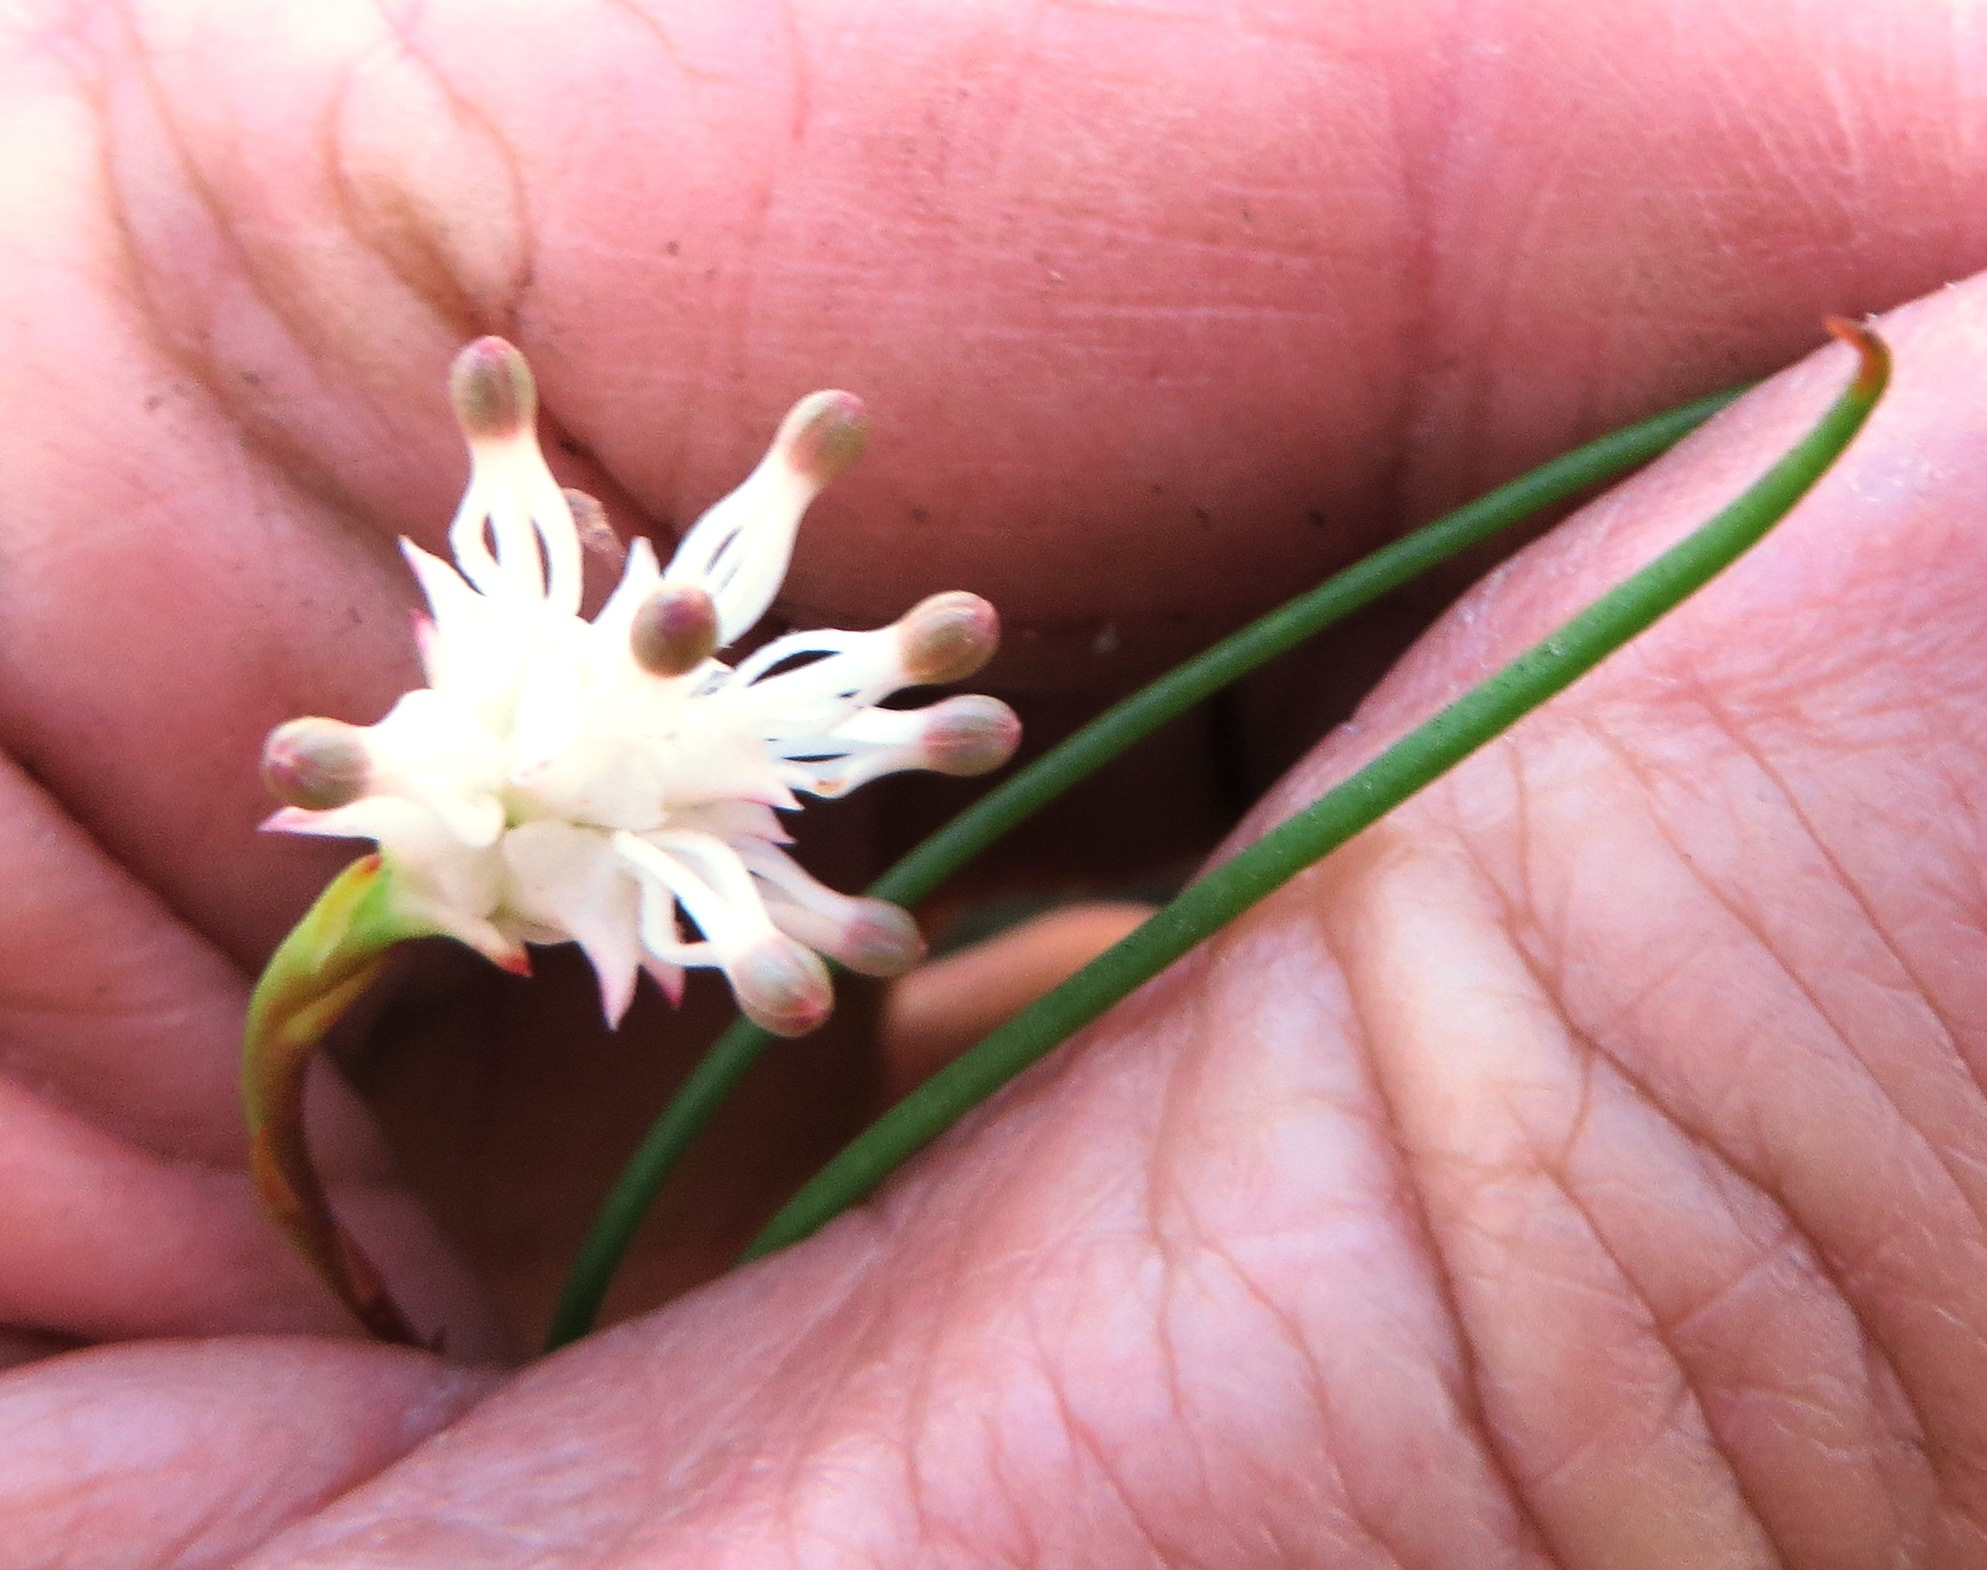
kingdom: Plantae
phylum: Tracheophyta
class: Magnoliopsida
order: Proteales
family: Proteaceae
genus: Serruria
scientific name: Serruria flagellifolia
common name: Houwhoek spiderhead
